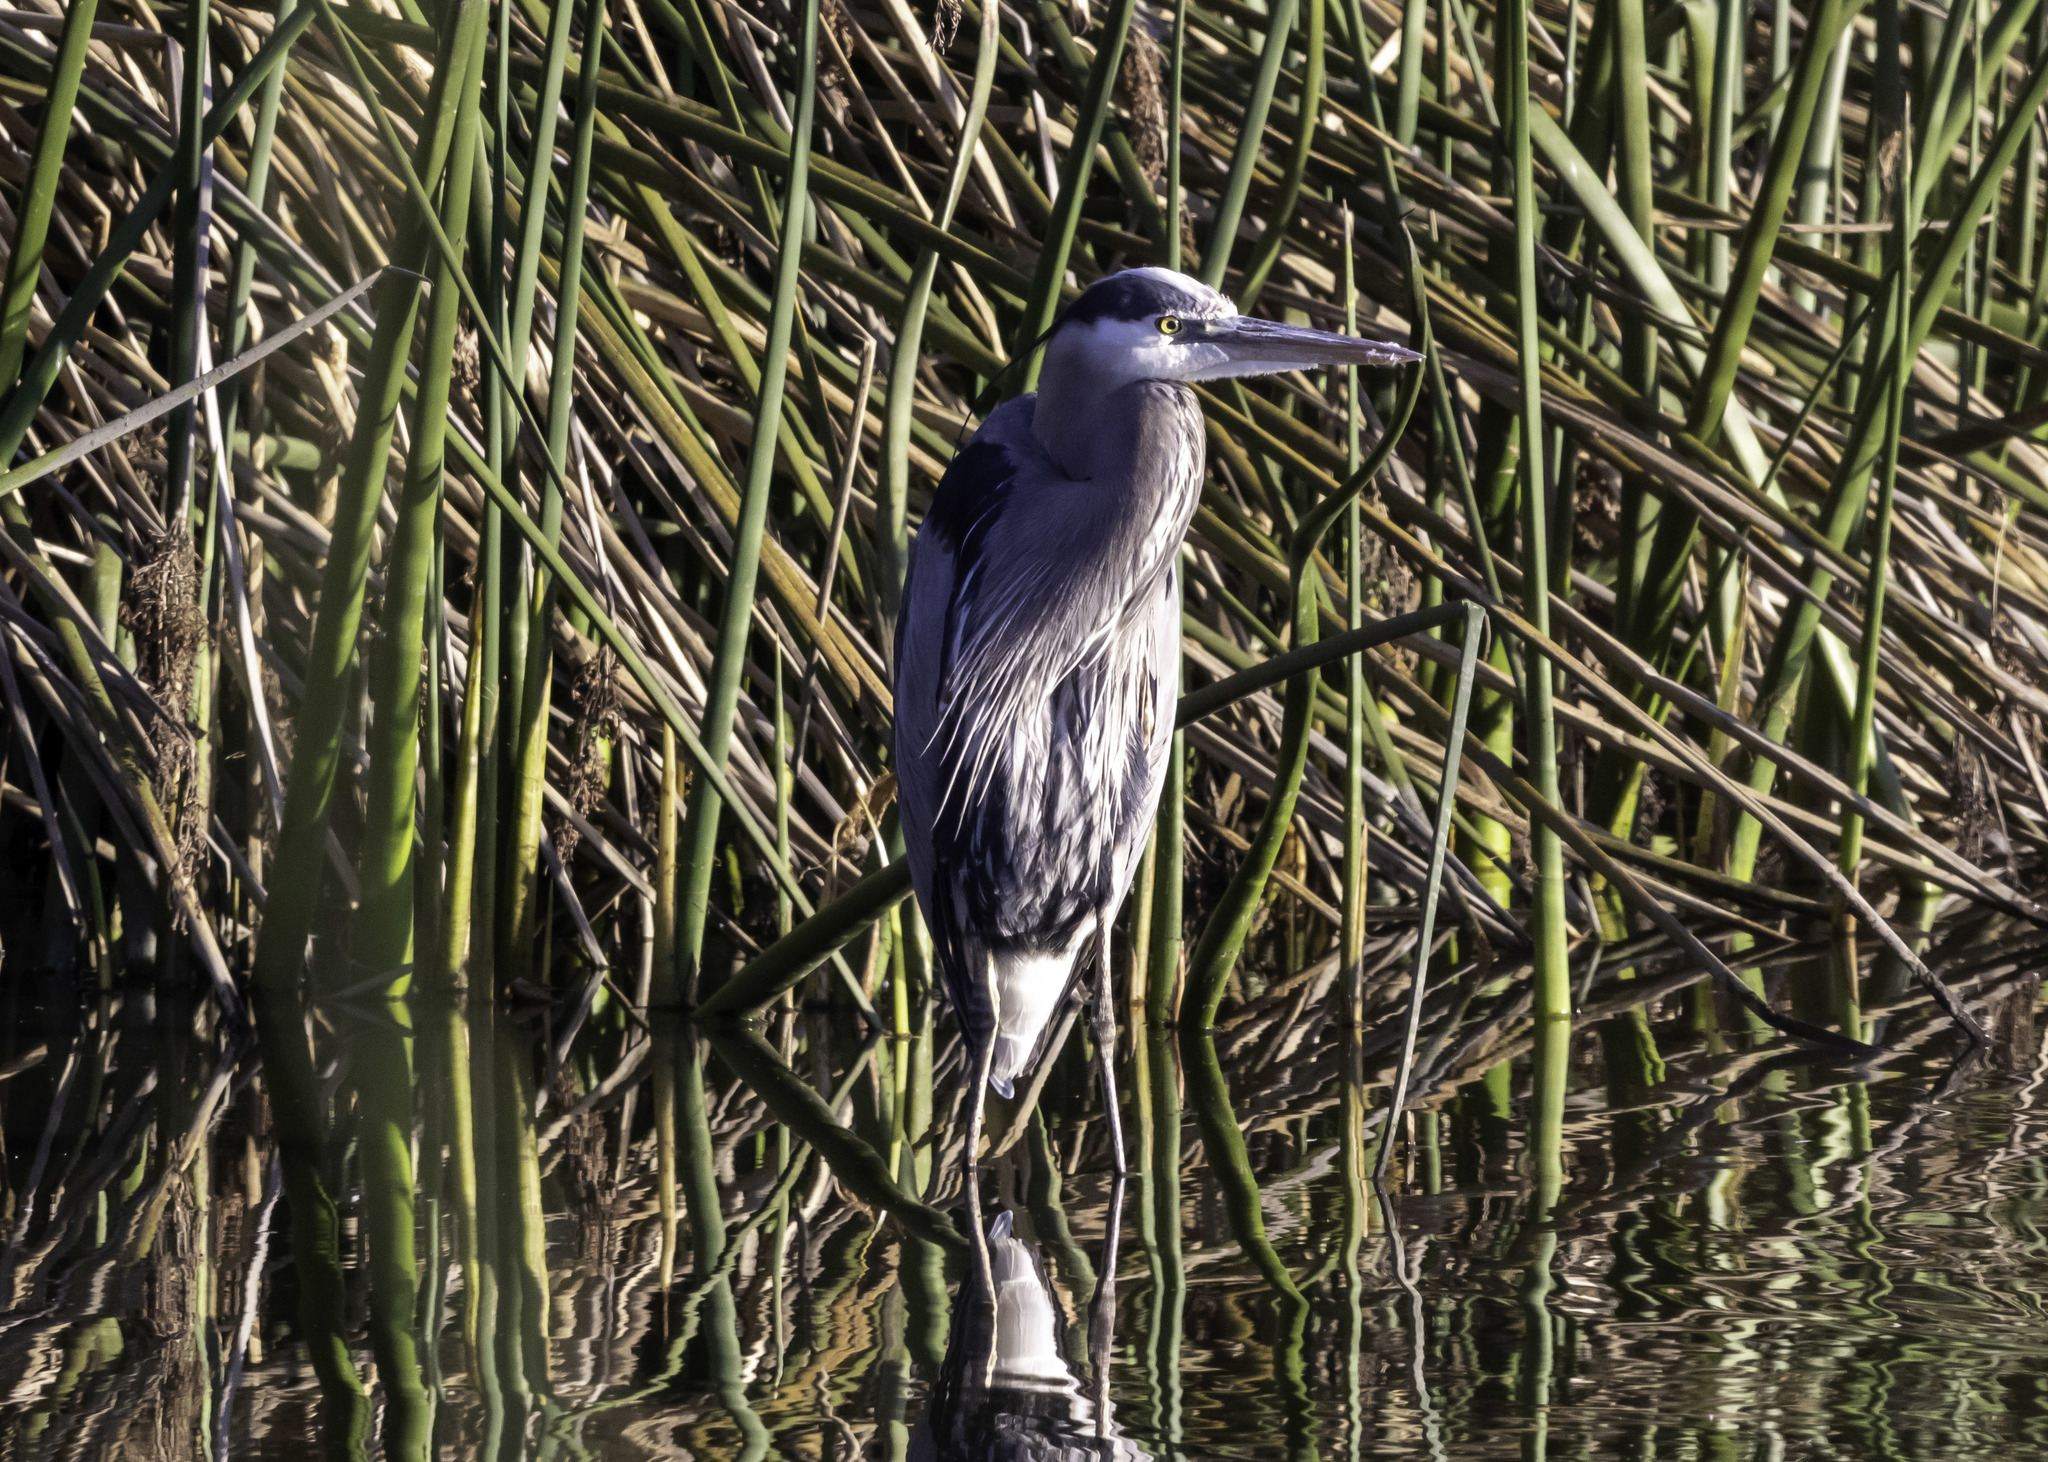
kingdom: Animalia
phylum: Chordata
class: Aves
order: Pelecaniformes
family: Ardeidae
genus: Ardea
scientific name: Ardea herodias
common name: Great blue heron
